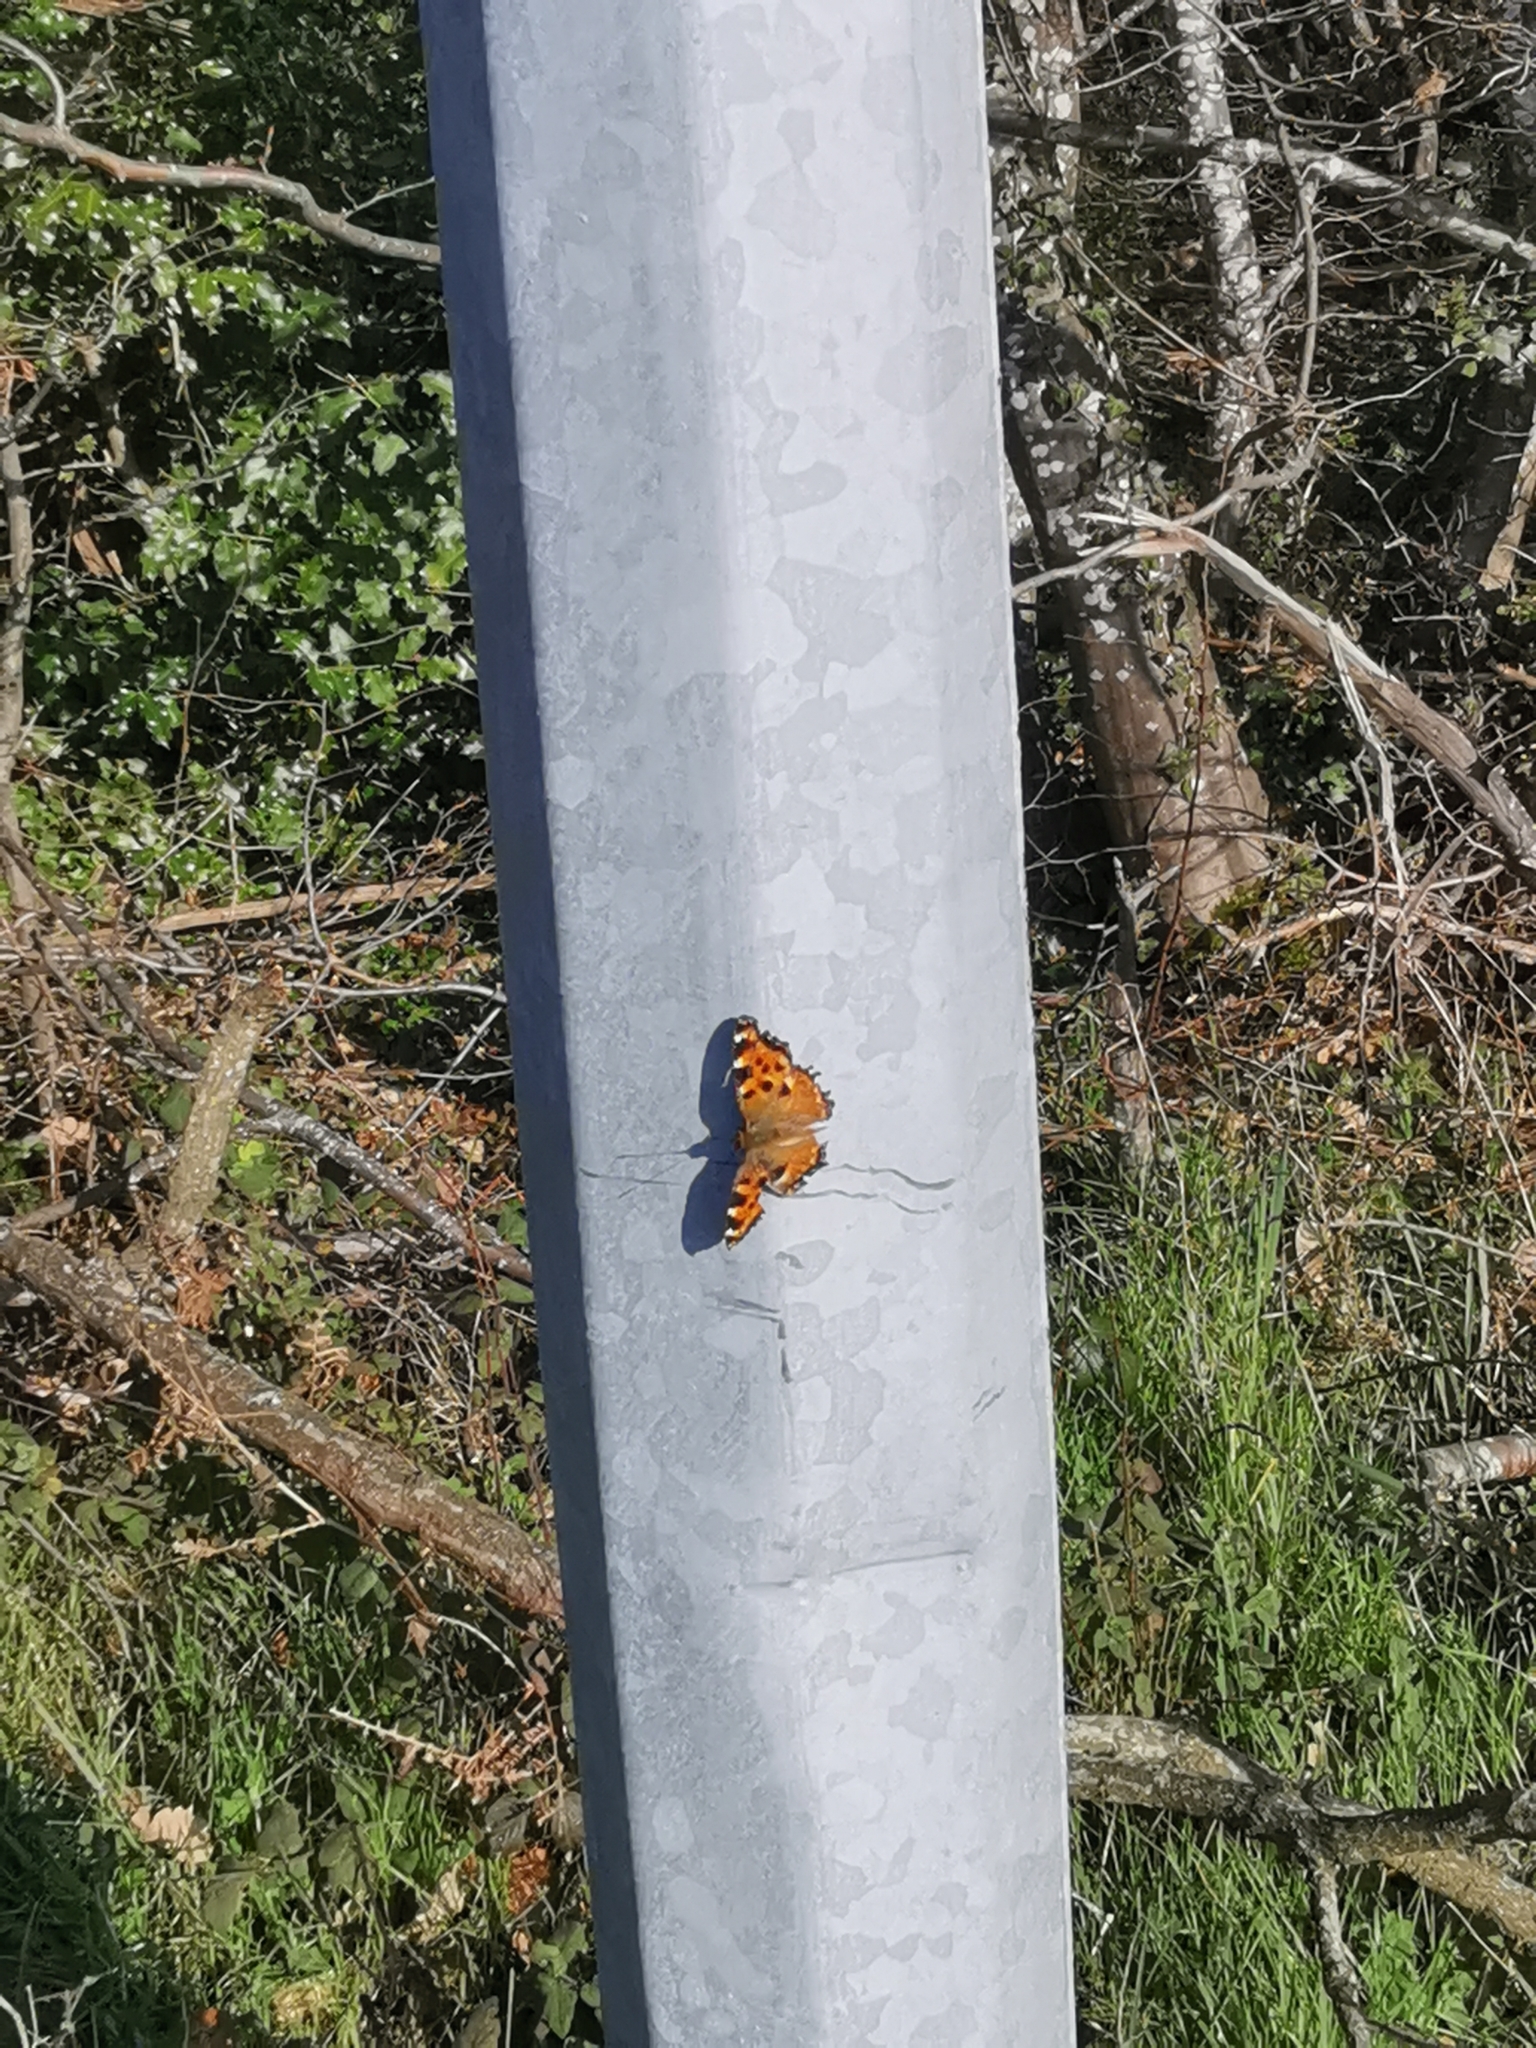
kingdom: Animalia
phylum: Arthropoda
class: Insecta
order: Lepidoptera
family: Nymphalidae
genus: Nymphalis
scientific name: Nymphalis polychloros
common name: Large tortoiseshell
